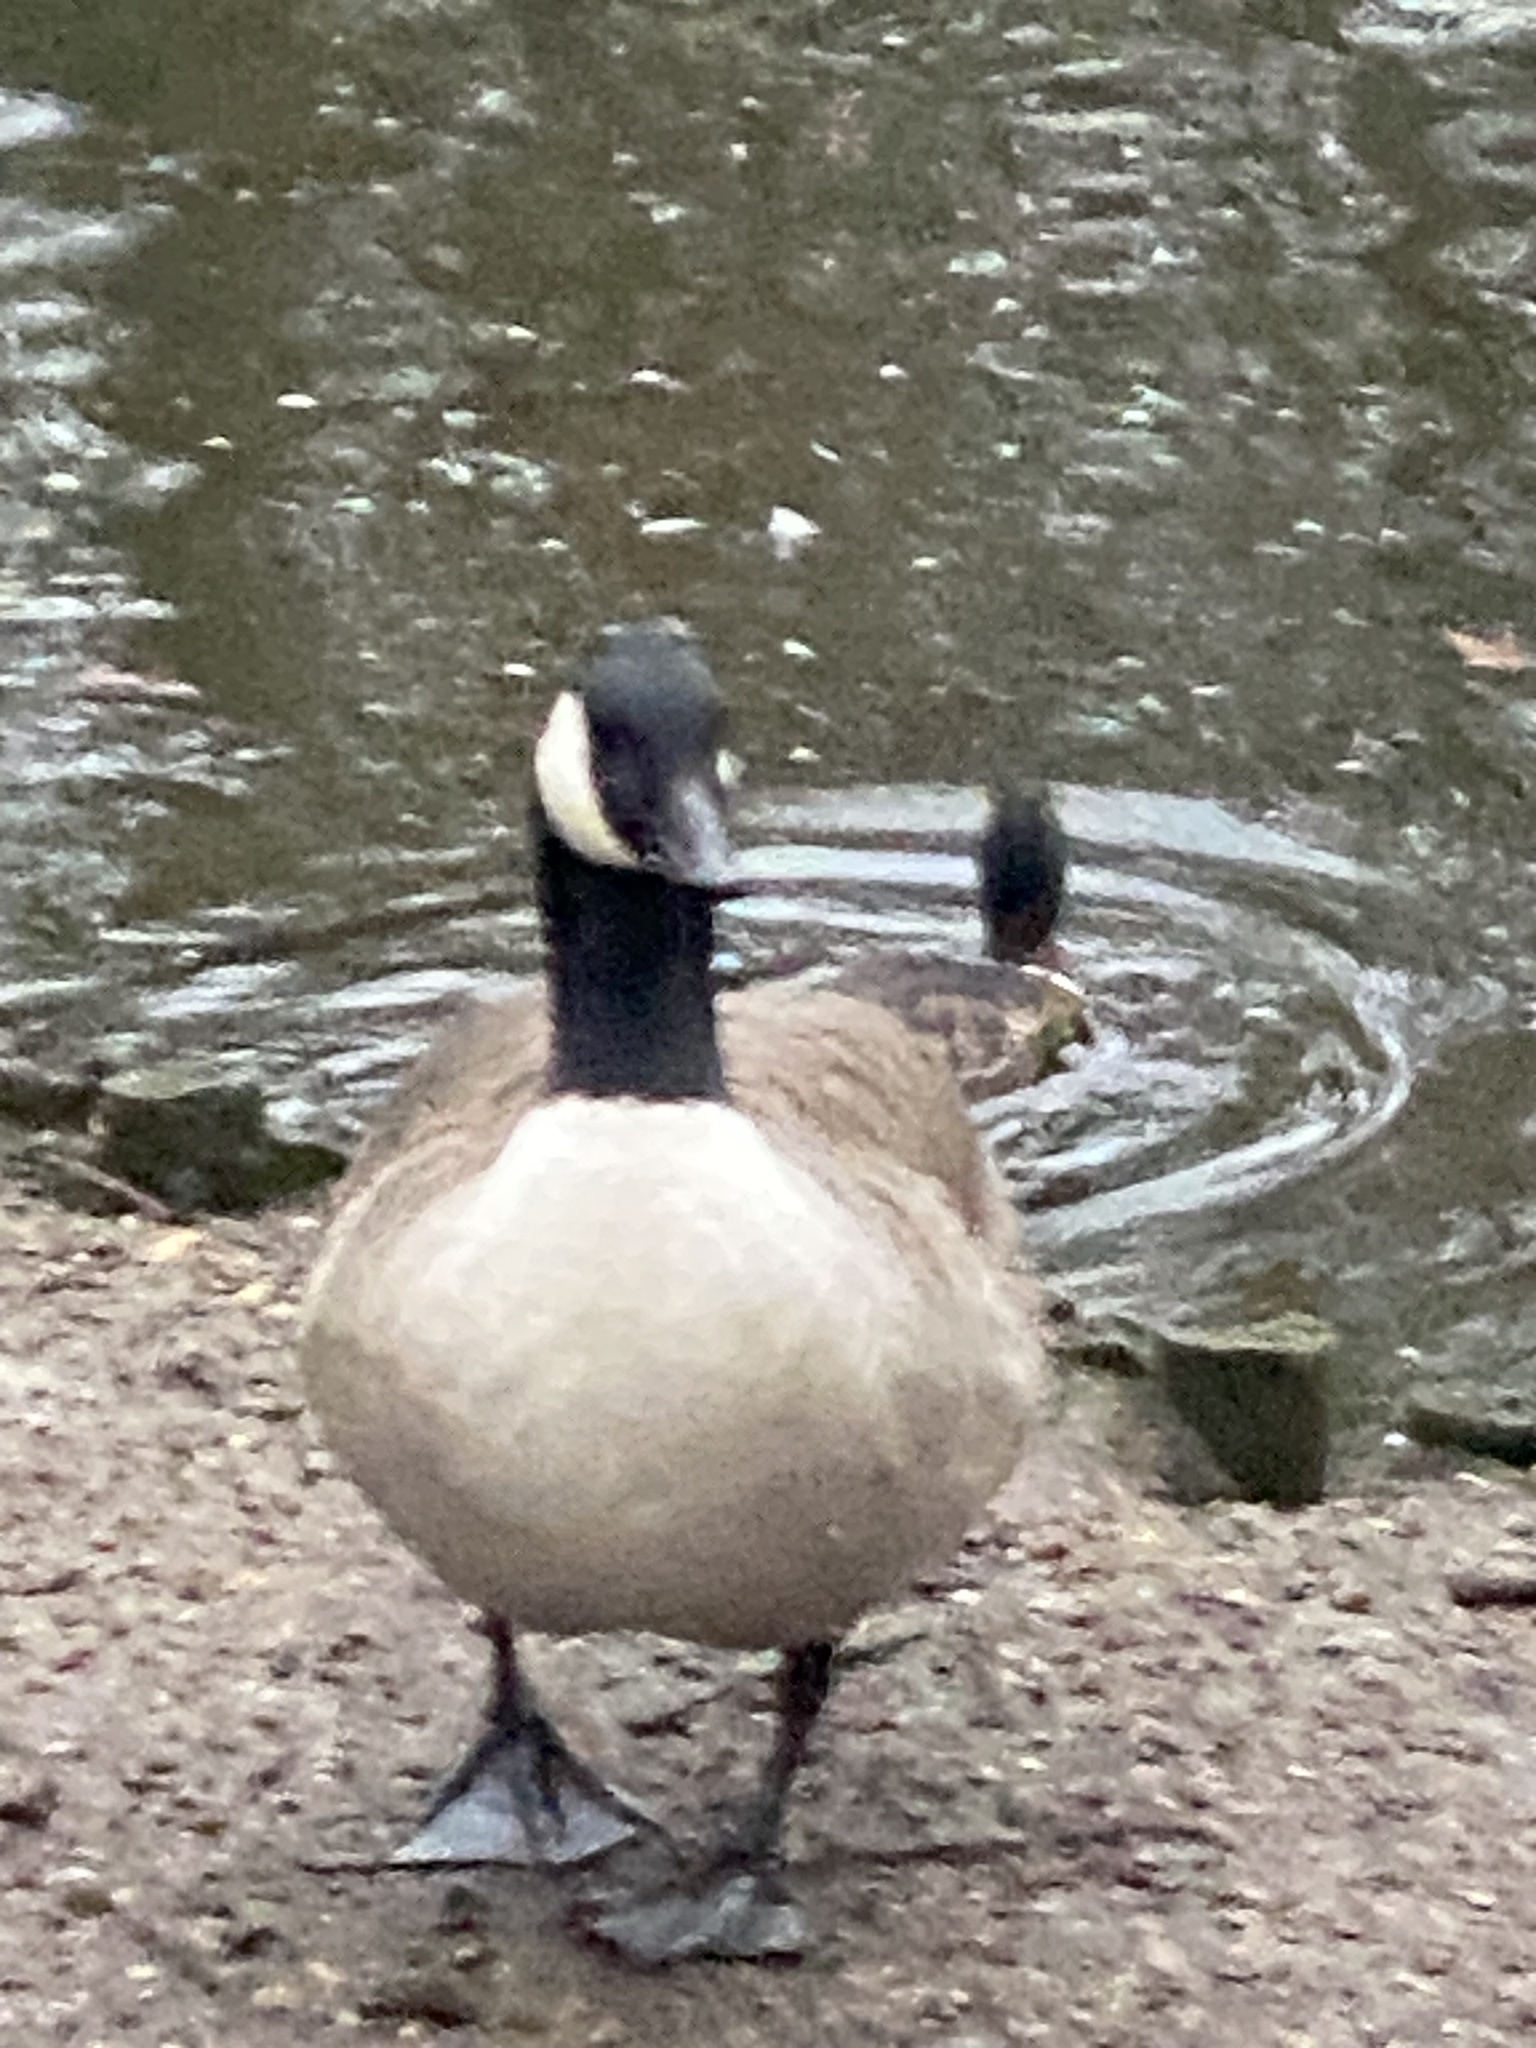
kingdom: Animalia
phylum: Chordata
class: Aves
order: Anseriformes
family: Anatidae
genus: Branta
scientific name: Branta canadensis
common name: Canada goose
